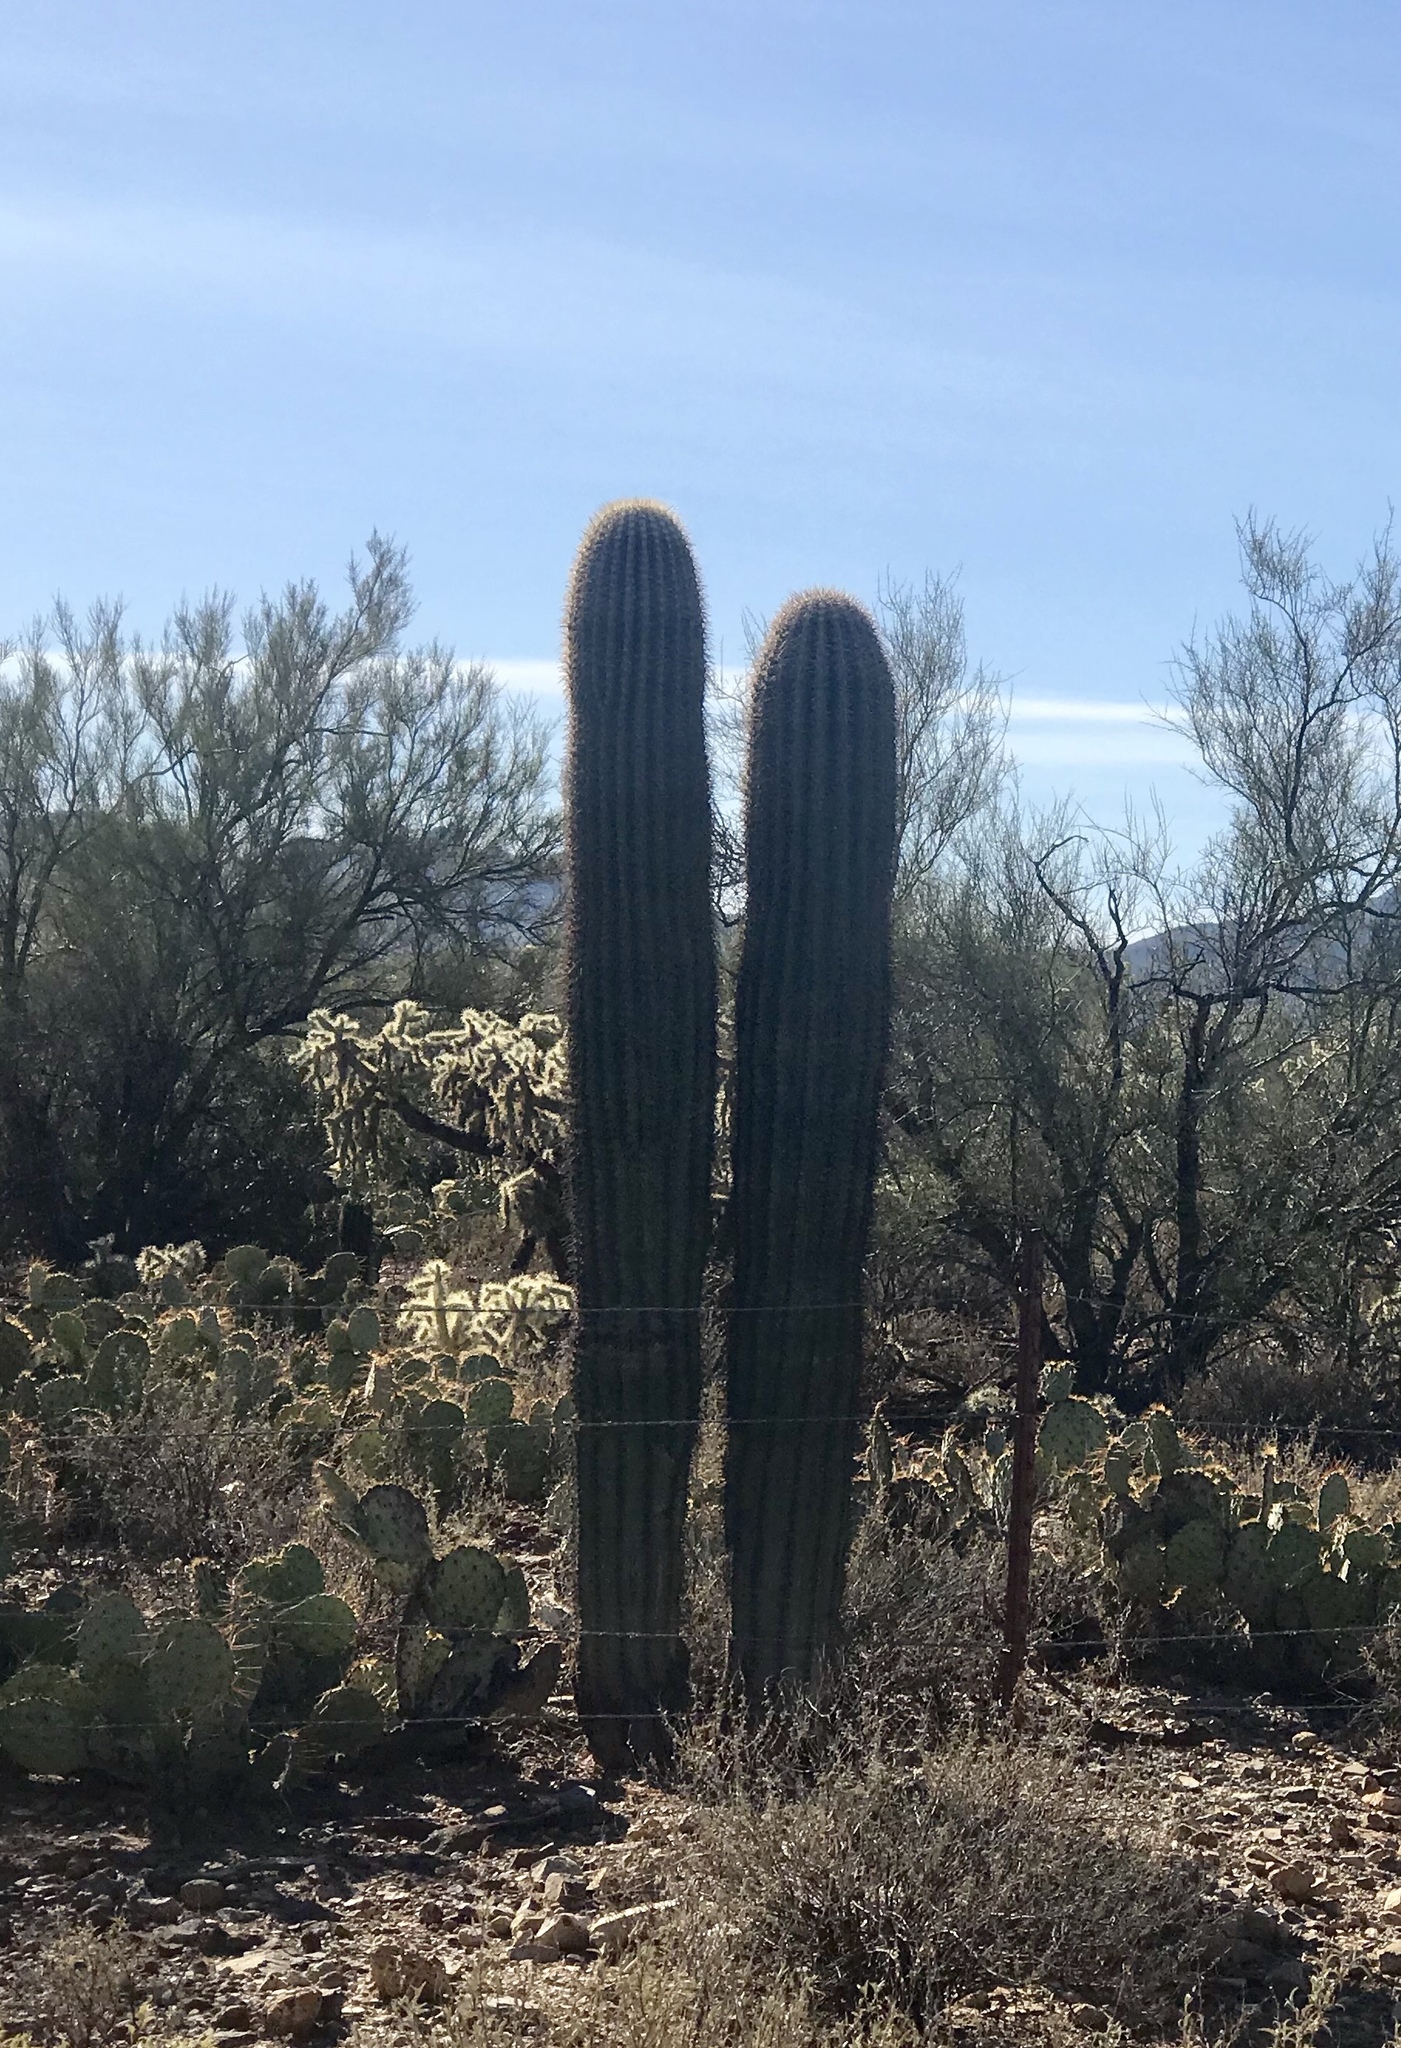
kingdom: Plantae
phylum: Tracheophyta
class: Magnoliopsida
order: Caryophyllales
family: Cactaceae
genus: Carnegiea
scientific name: Carnegiea gigantea
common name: Saguaro
